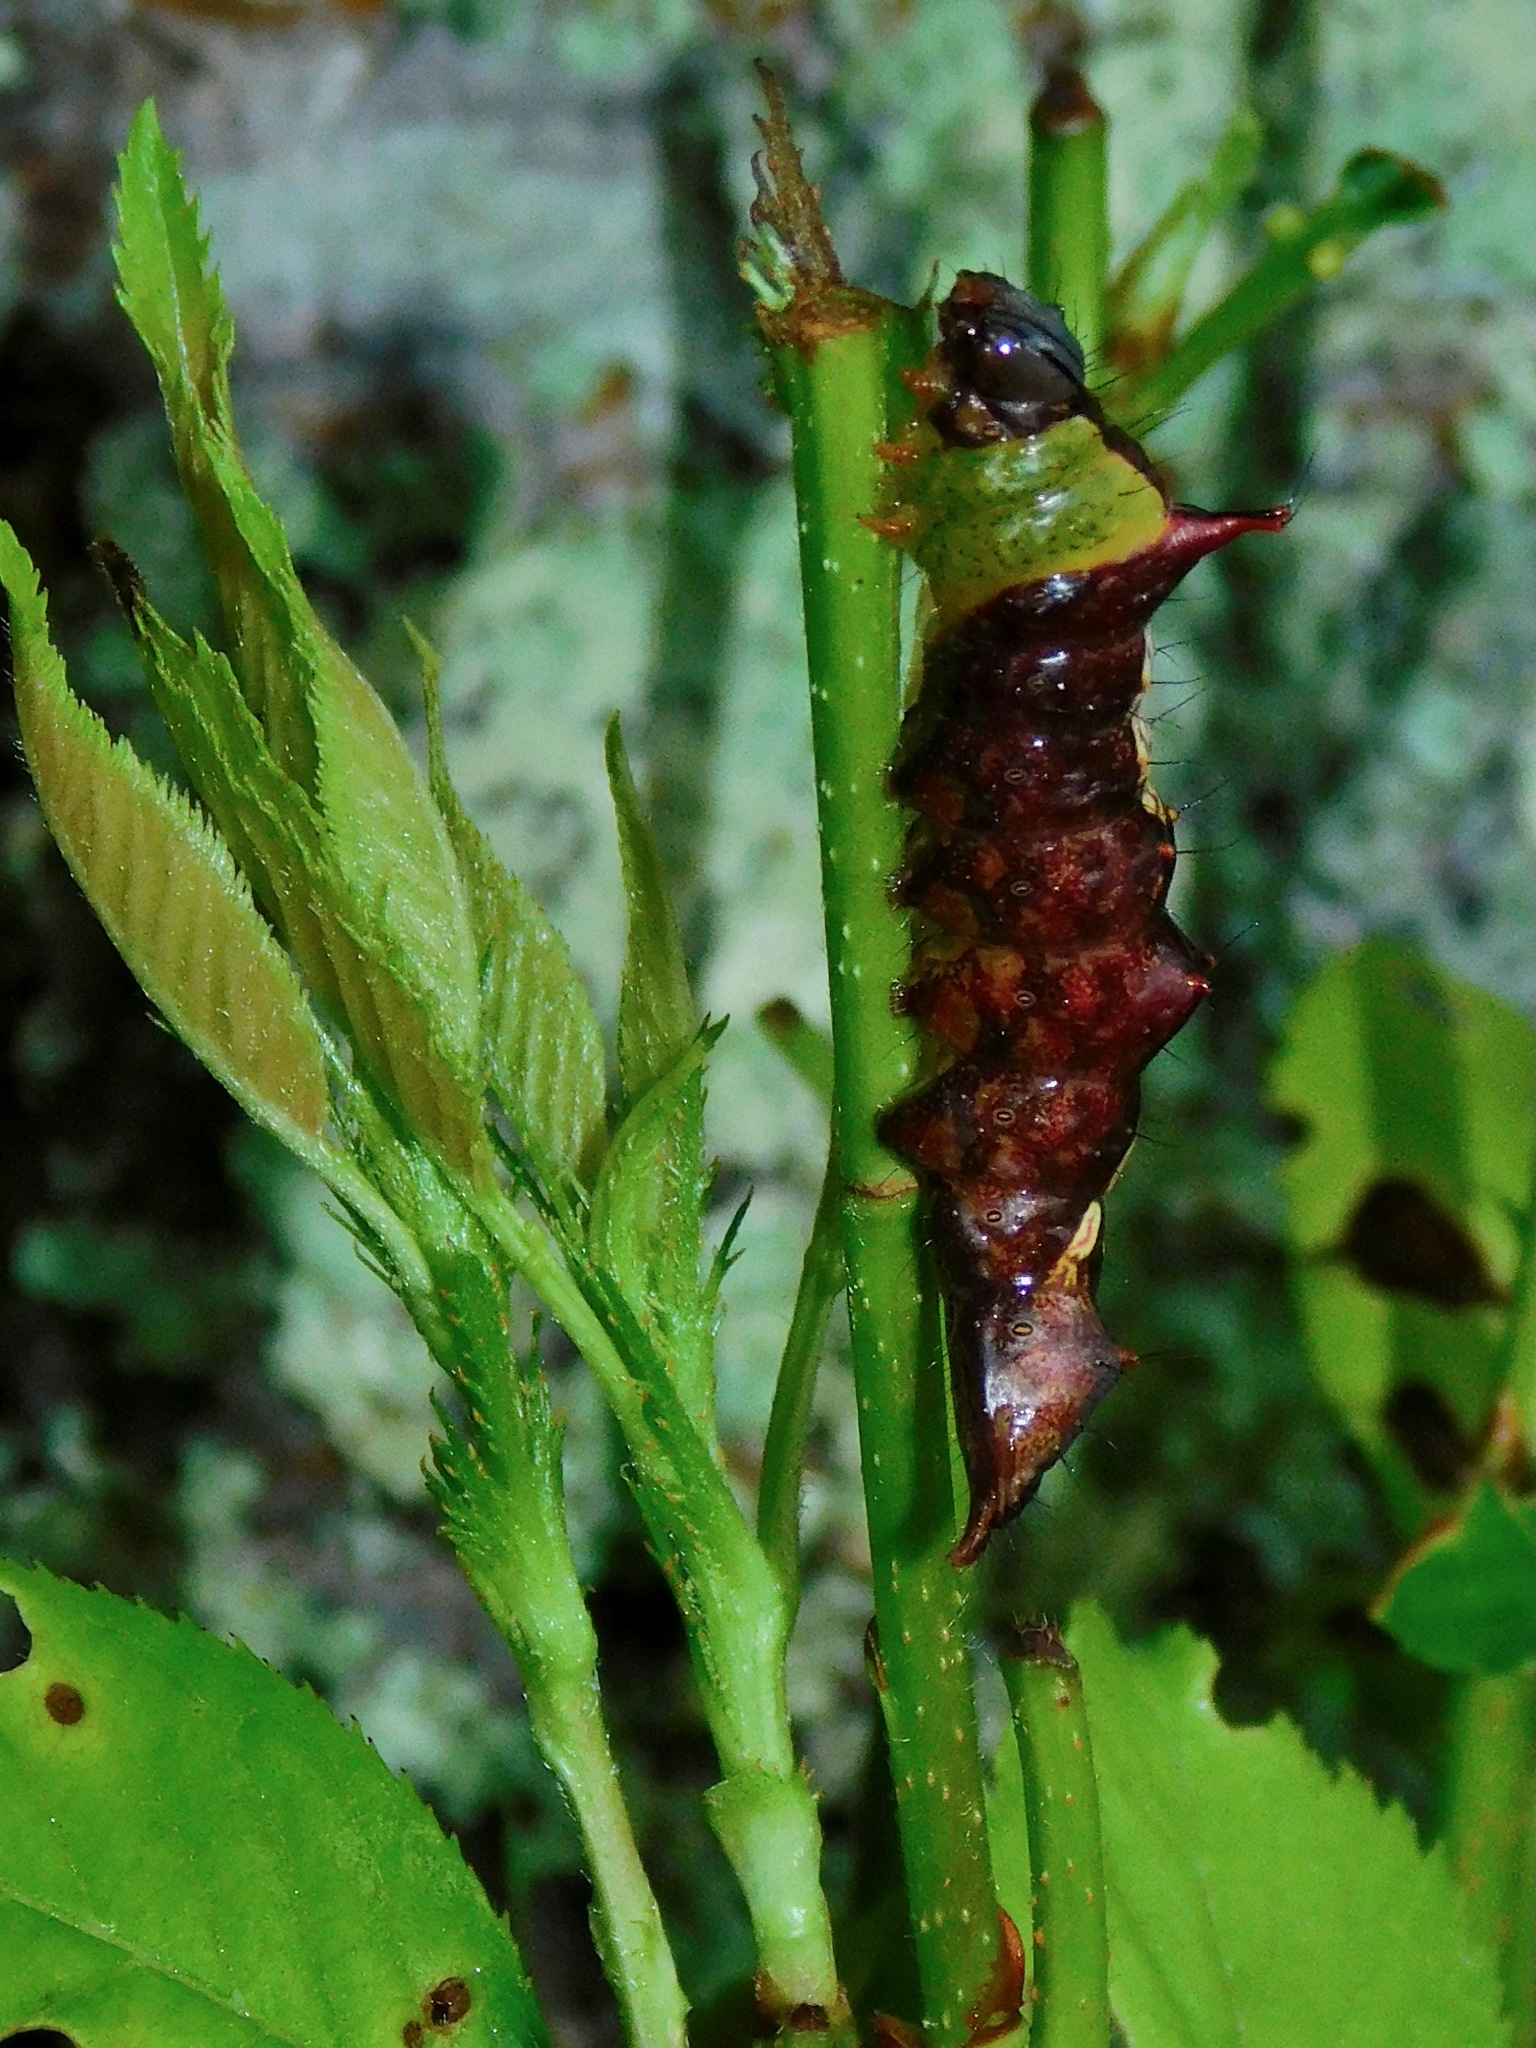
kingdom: Animalia
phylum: Arthropoda
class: Insecta
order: Lepidoptera
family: Notodontidae
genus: Schizura
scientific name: Schizura
